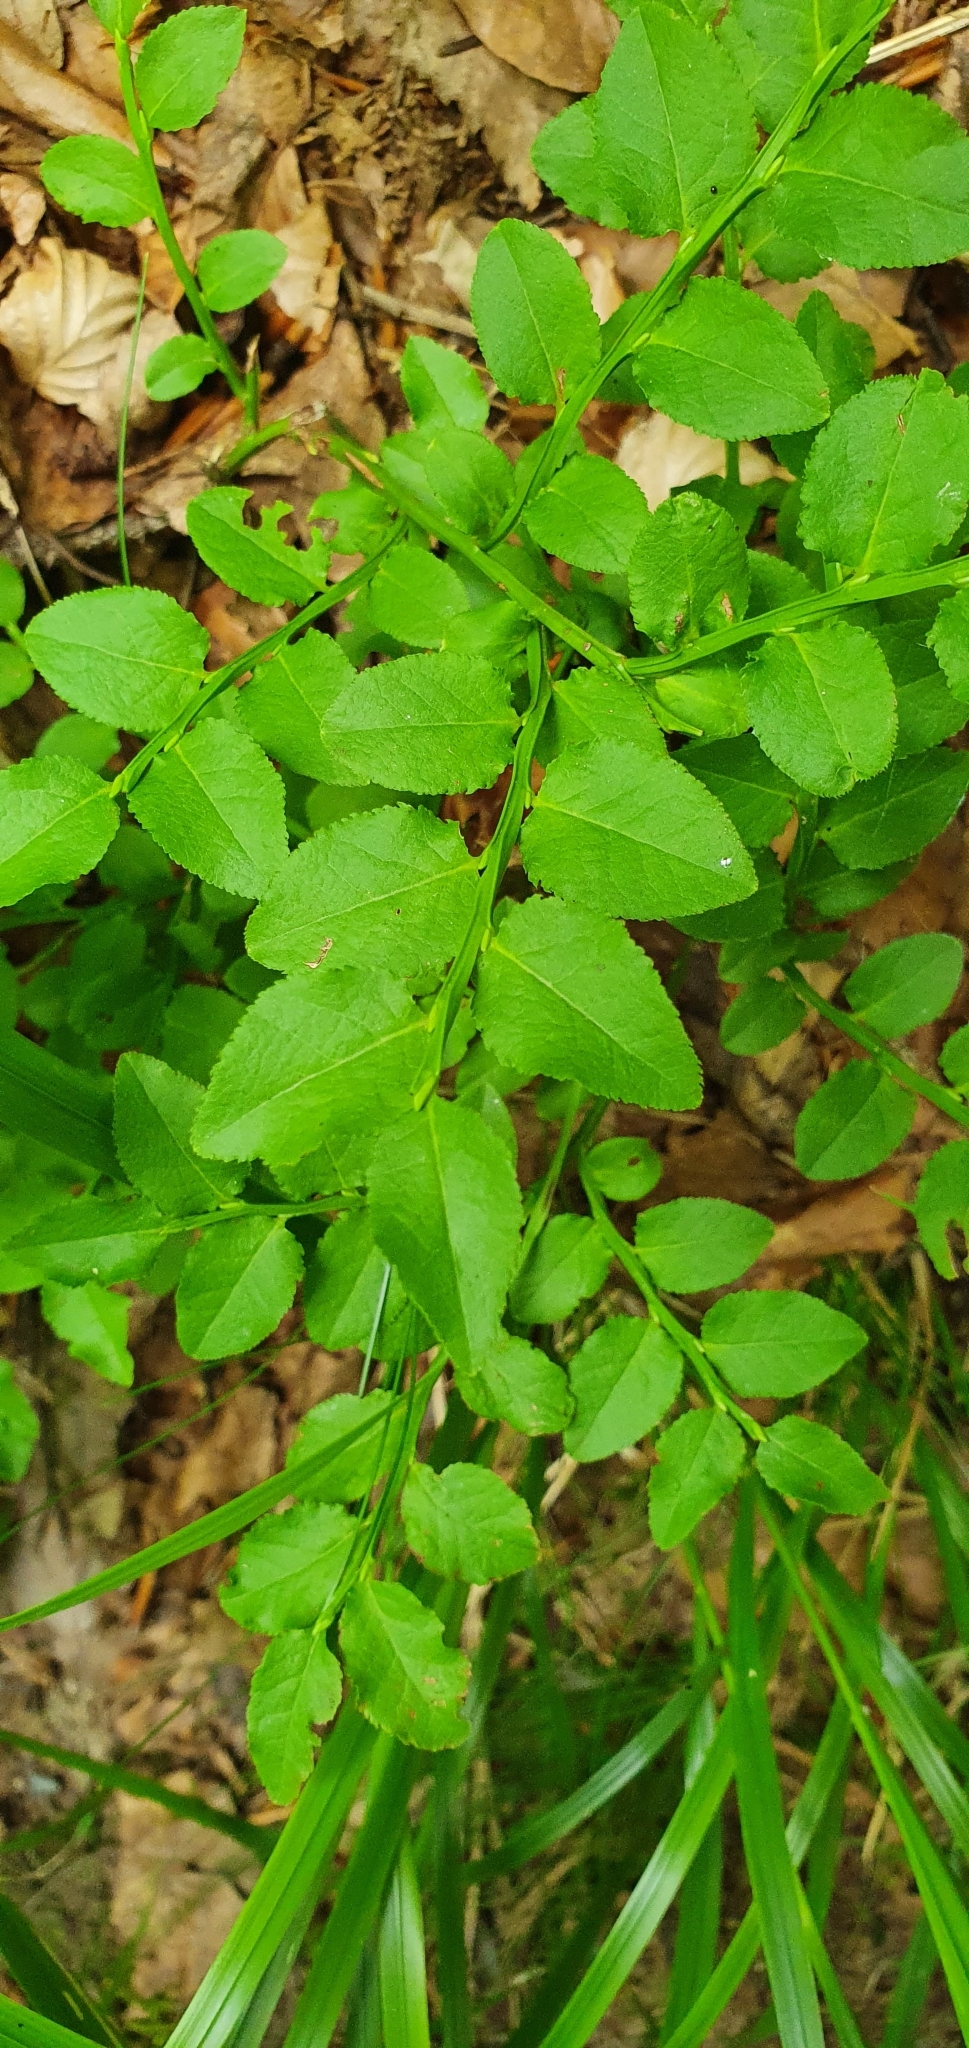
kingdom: Plantae
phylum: Tracheophyta
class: Magnoliopsida
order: Ericales
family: Ericaceae
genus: Vaccinium
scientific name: Vaccinium myrtillus
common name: Bilberry
